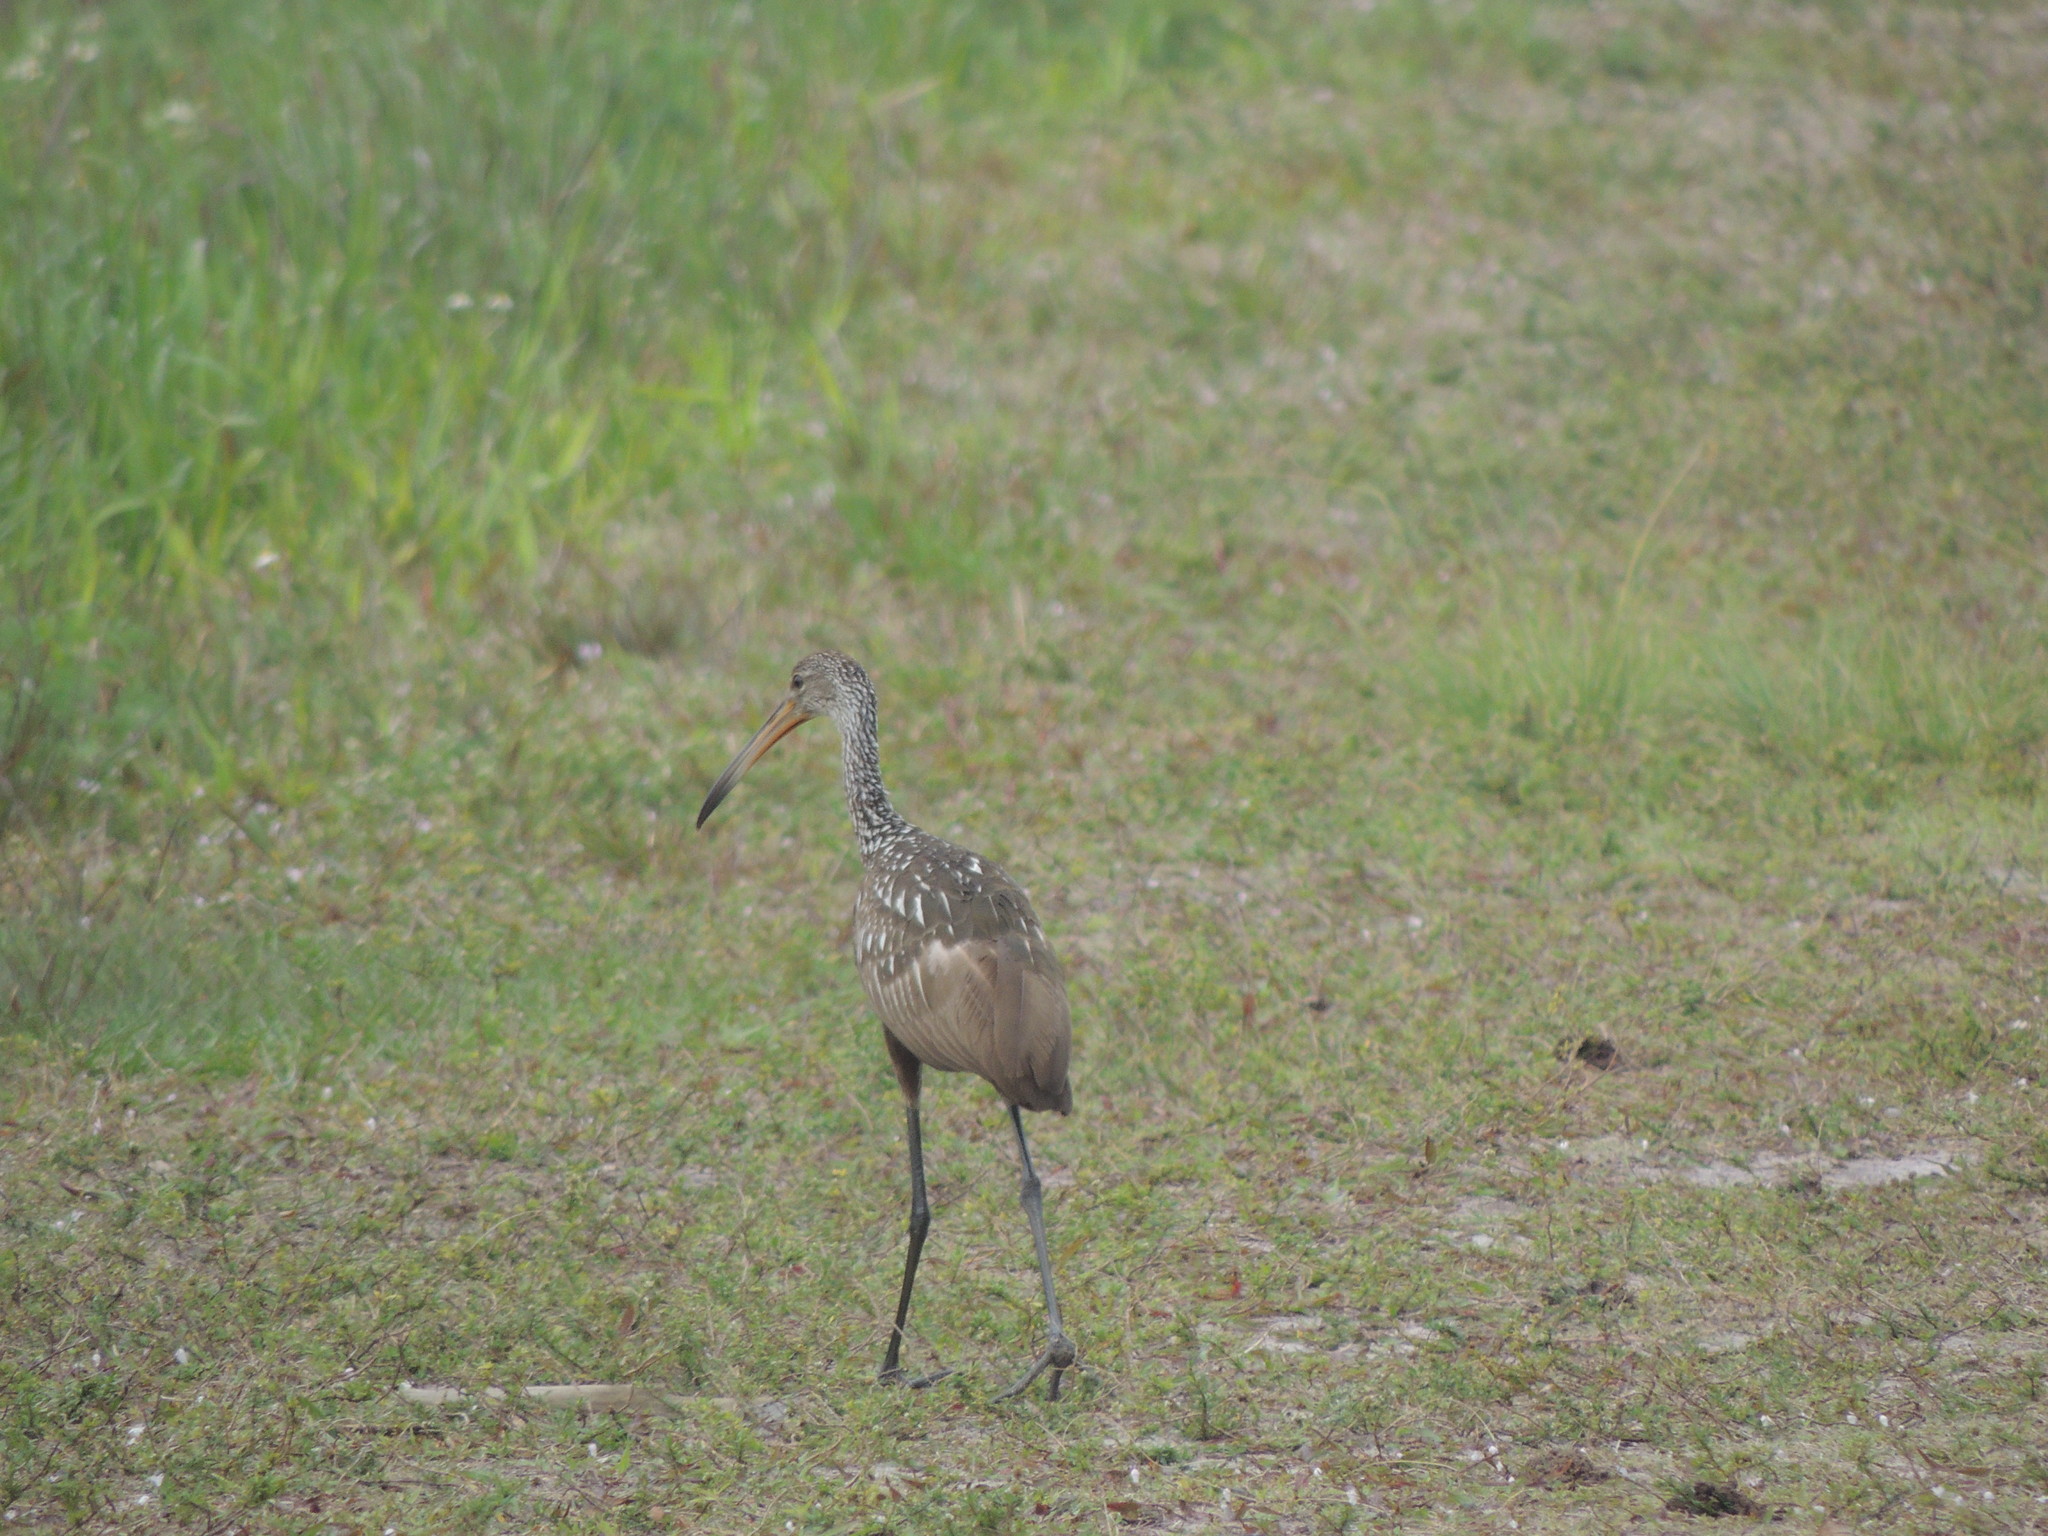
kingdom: Animalia
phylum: Chordata
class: Aves
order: Gruiformes
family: Aramidae
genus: Aramus
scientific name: Aramus guarauna
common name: Limpkin
